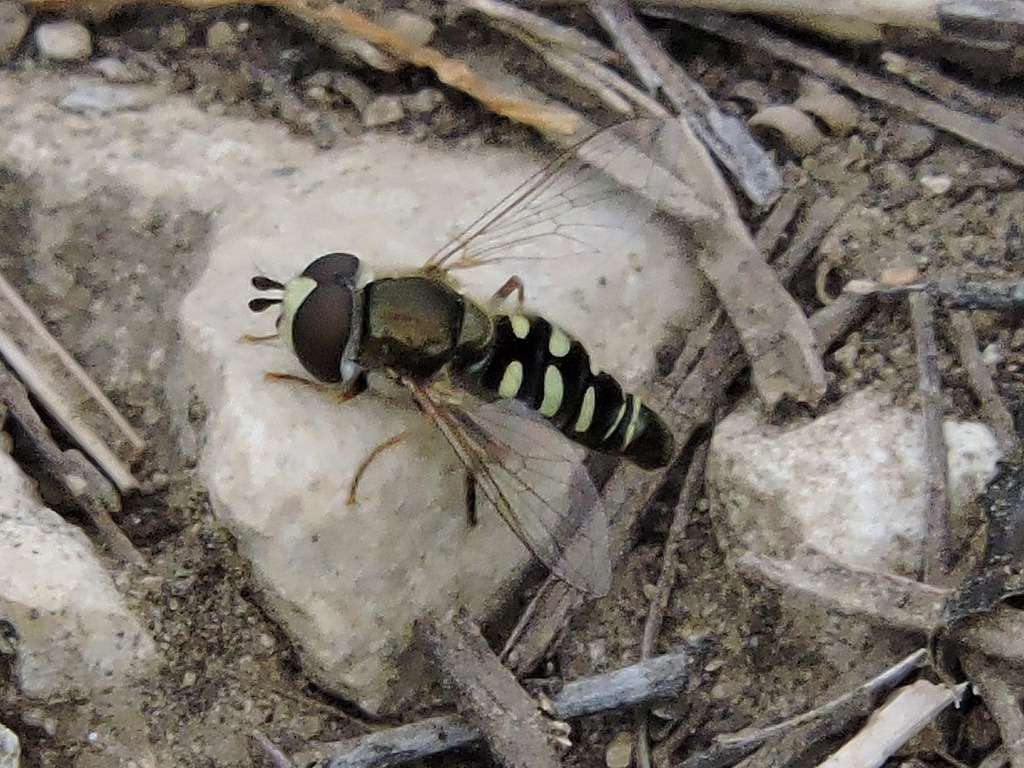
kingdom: Animalia
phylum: Arthropoda
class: Insecta
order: Diptera
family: Syrphidae
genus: Eupeodes
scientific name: Eupeodes volucris
